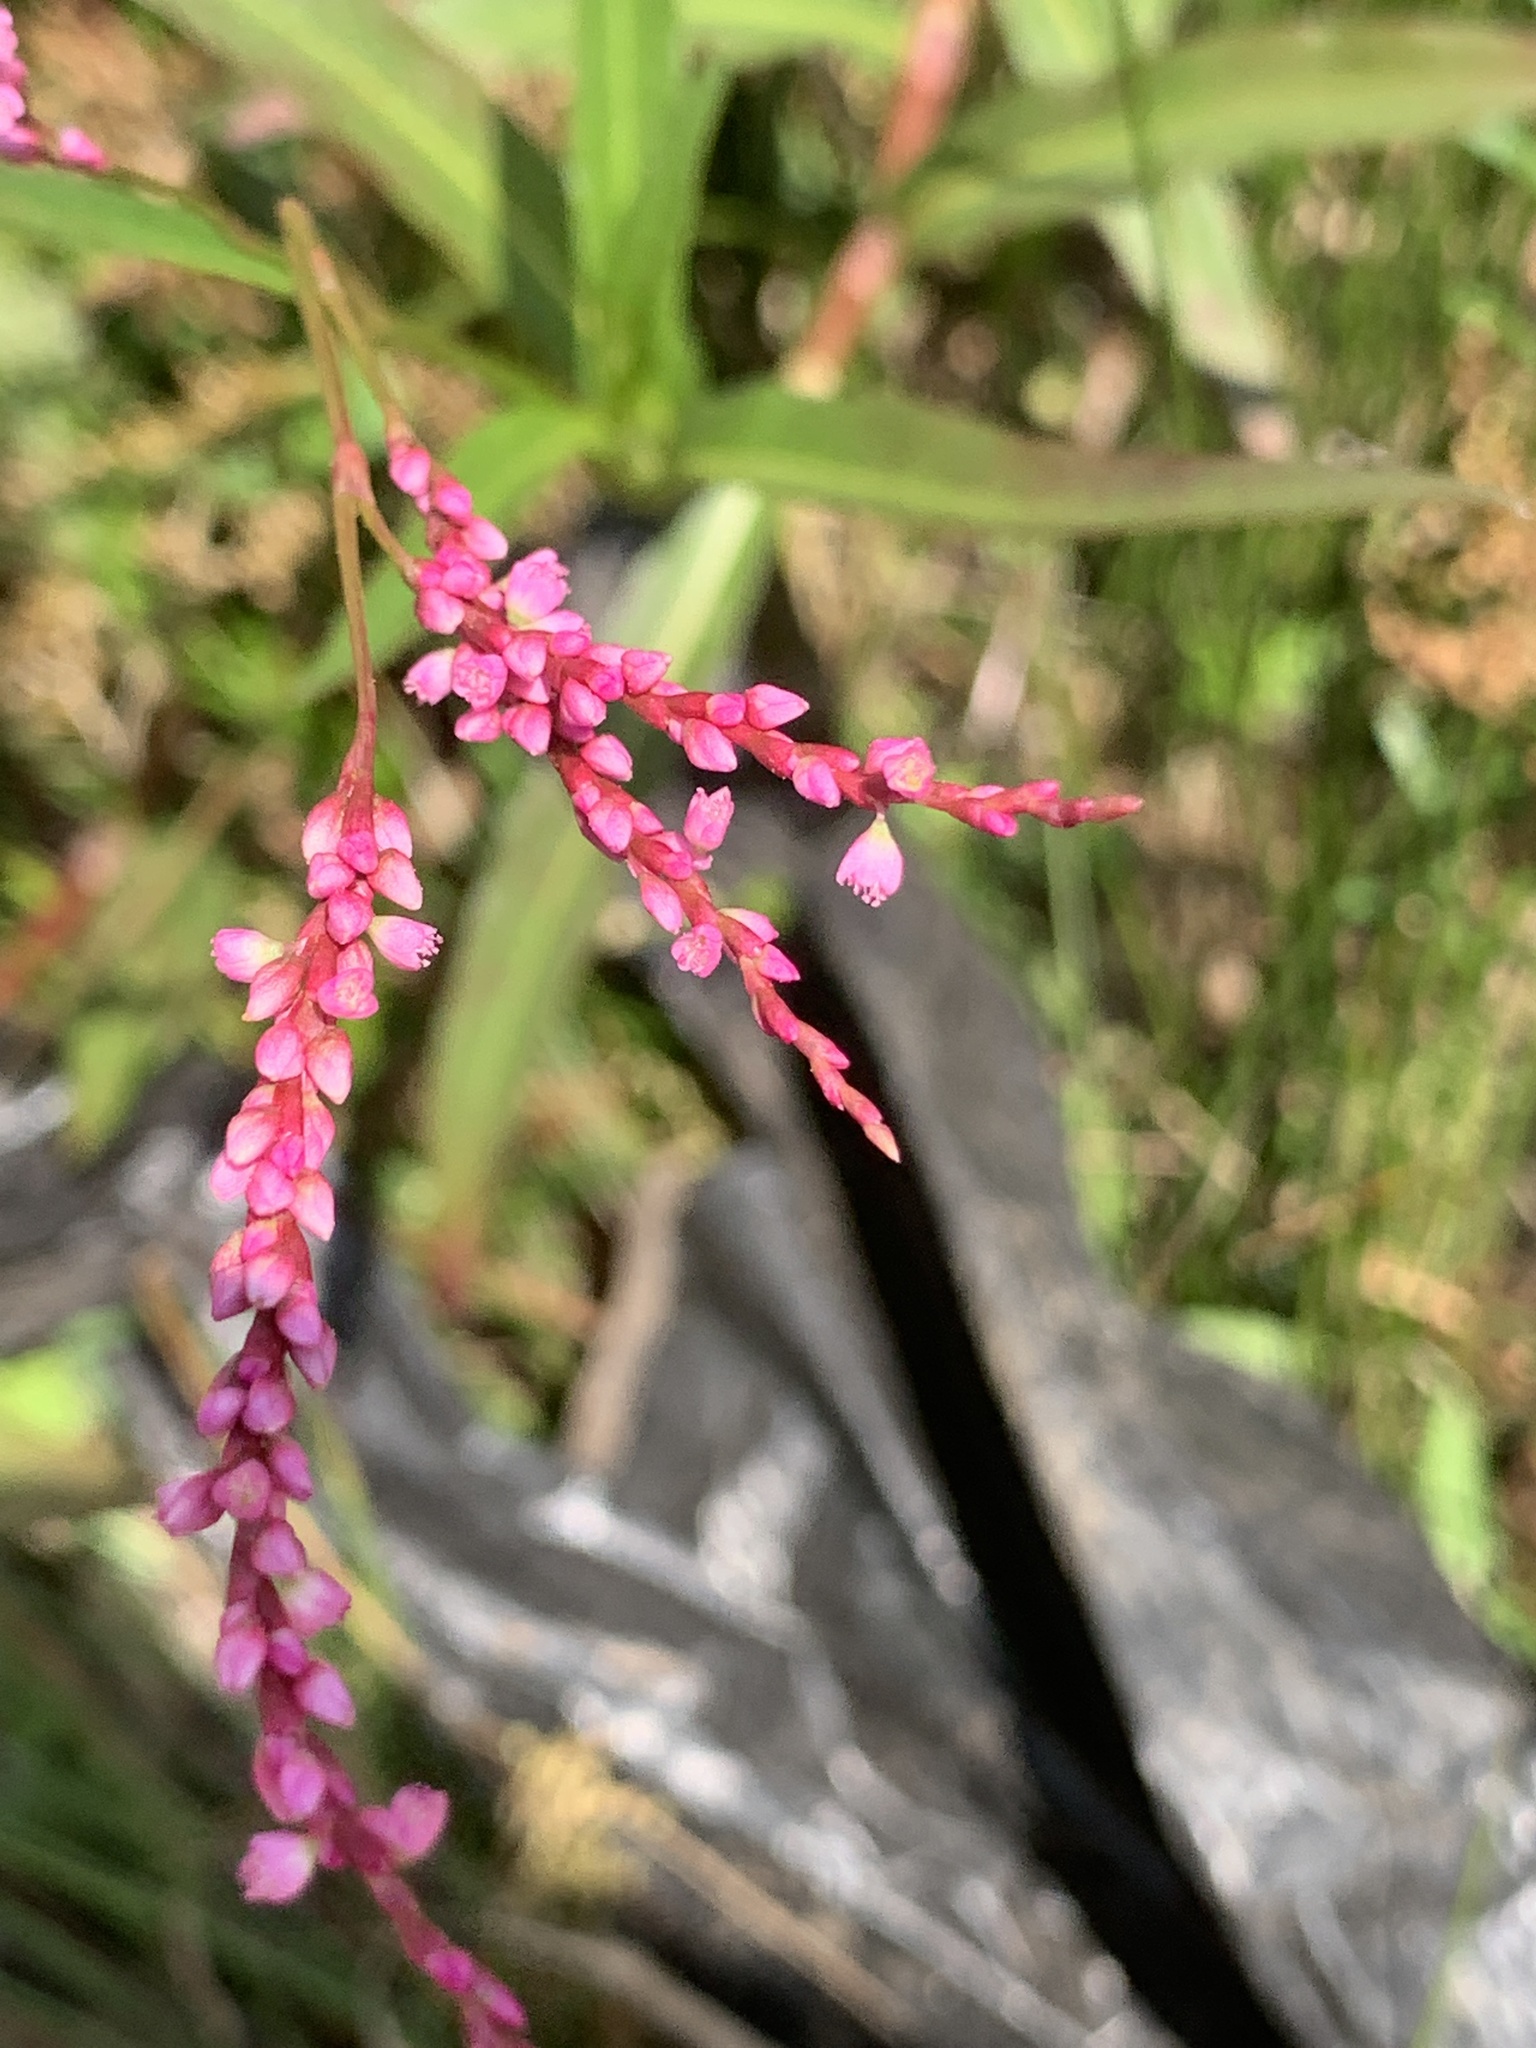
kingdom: Plantae
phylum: Tracheophyta
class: Magnoliopsida
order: Caryophyllales
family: Polygonaceae
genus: Persicaria
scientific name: Persicaria decipiens
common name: Willow-weed
